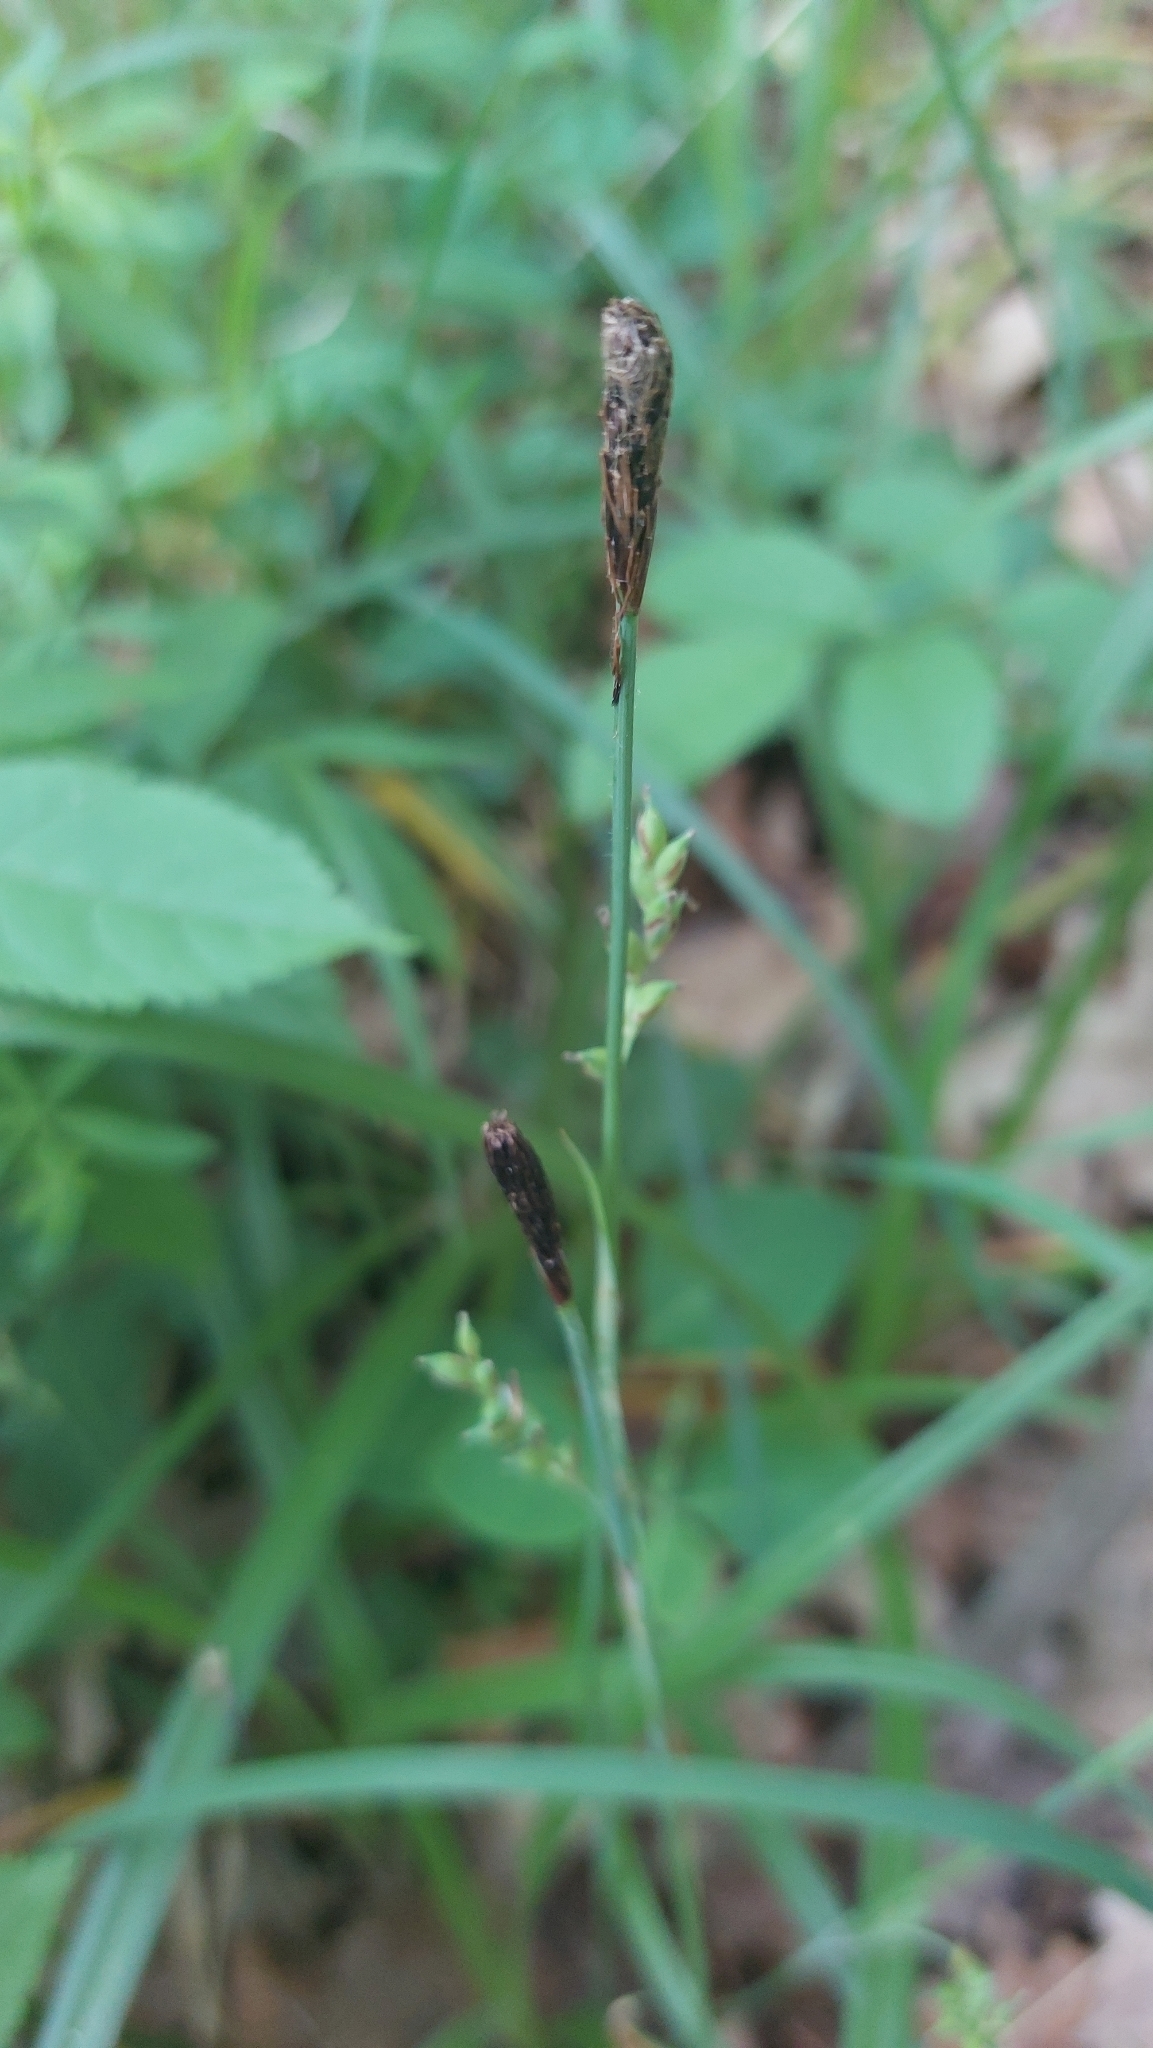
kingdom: Plantae
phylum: Tracheophyta
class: Liliopsida
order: Poales
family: Cyperaceae
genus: Carex
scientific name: Carex pilosa
